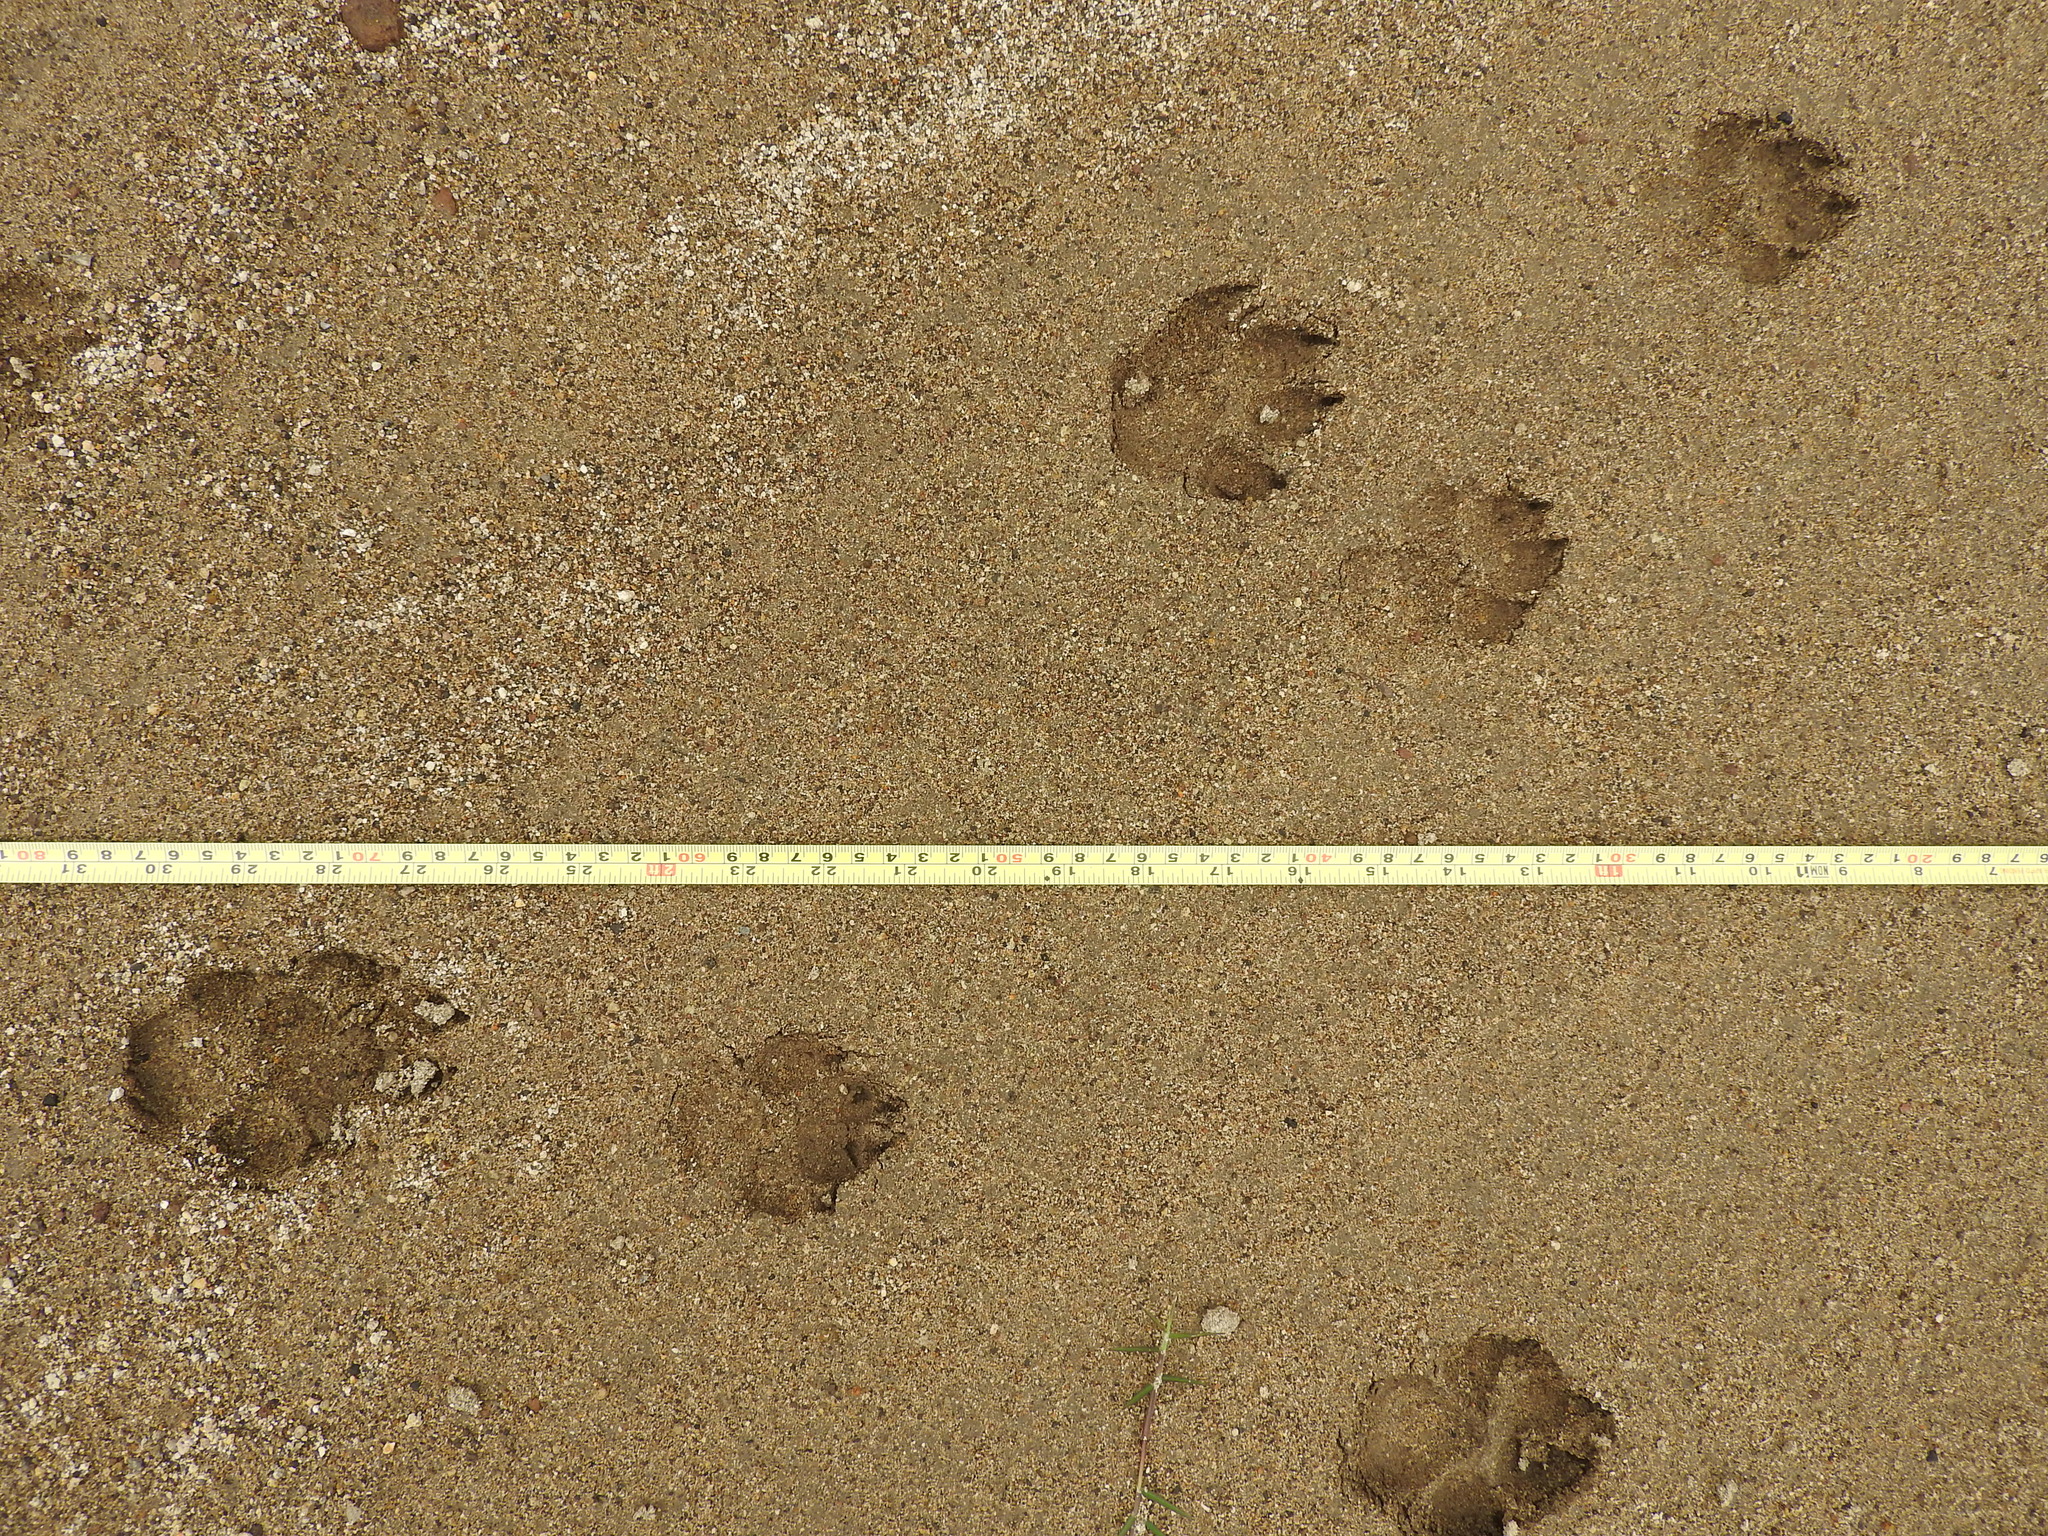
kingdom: Animalia
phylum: Chordata
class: Mammalia
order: Carnivora
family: Canidae
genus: Canis
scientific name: Canis latrans
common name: Coyote
